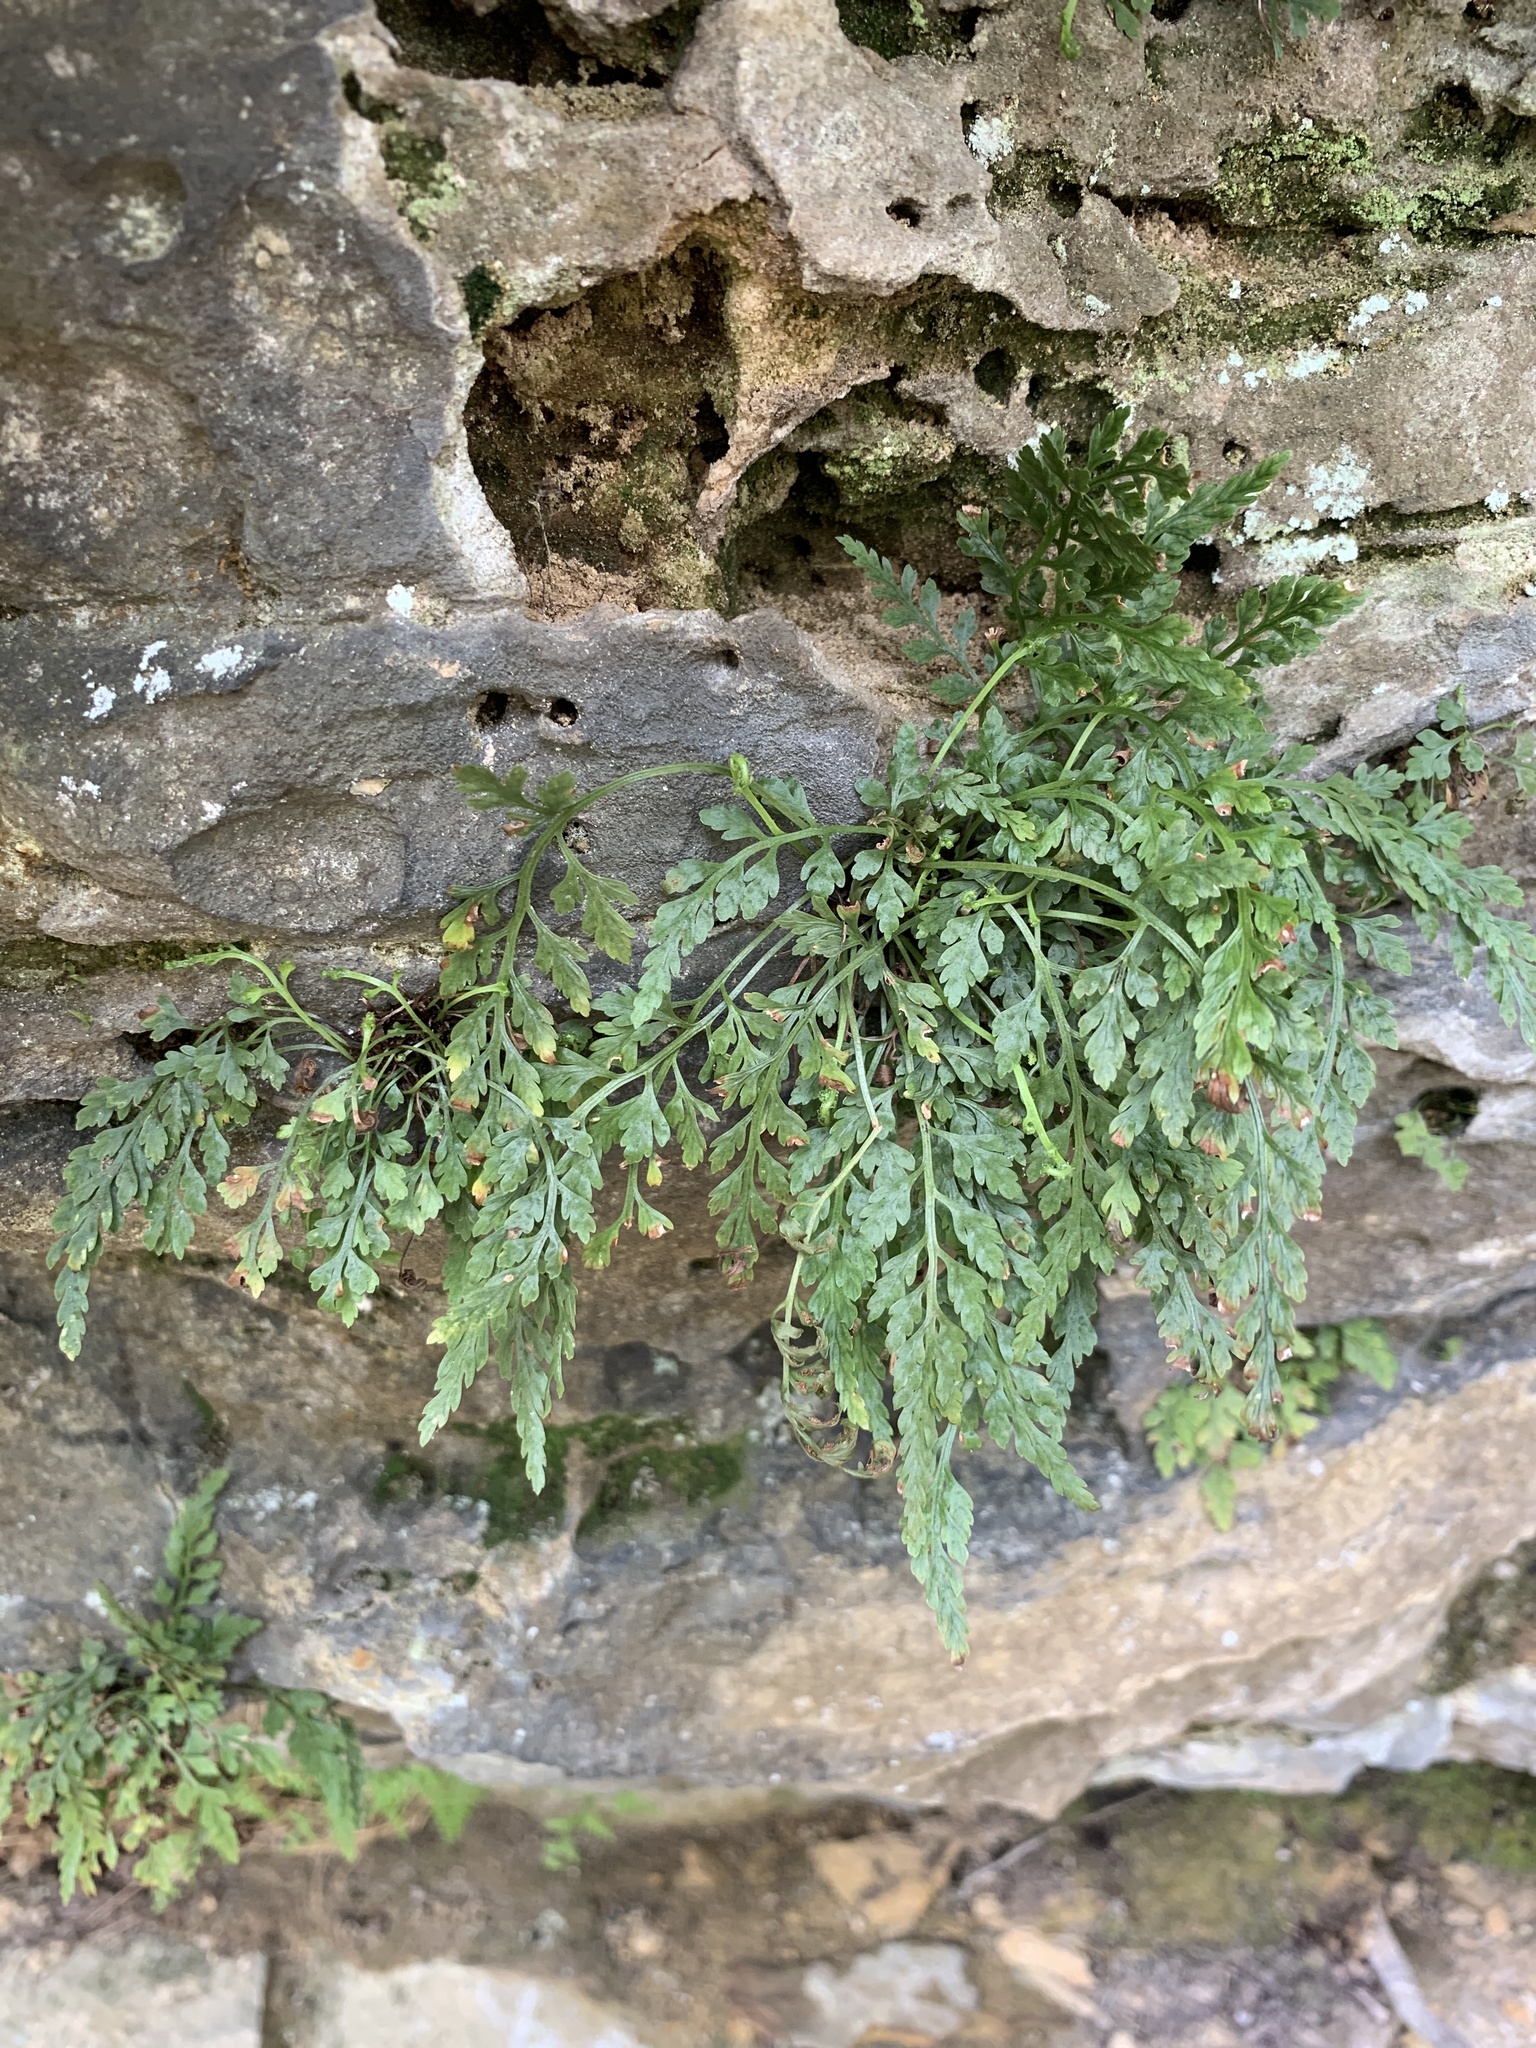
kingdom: Plantae
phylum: Tracheophyta
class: Polypodiopsida
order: Polypodiales
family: Aspleniaceae
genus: Asplenium
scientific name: Asplenium montanum
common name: Mountain spleenwort
